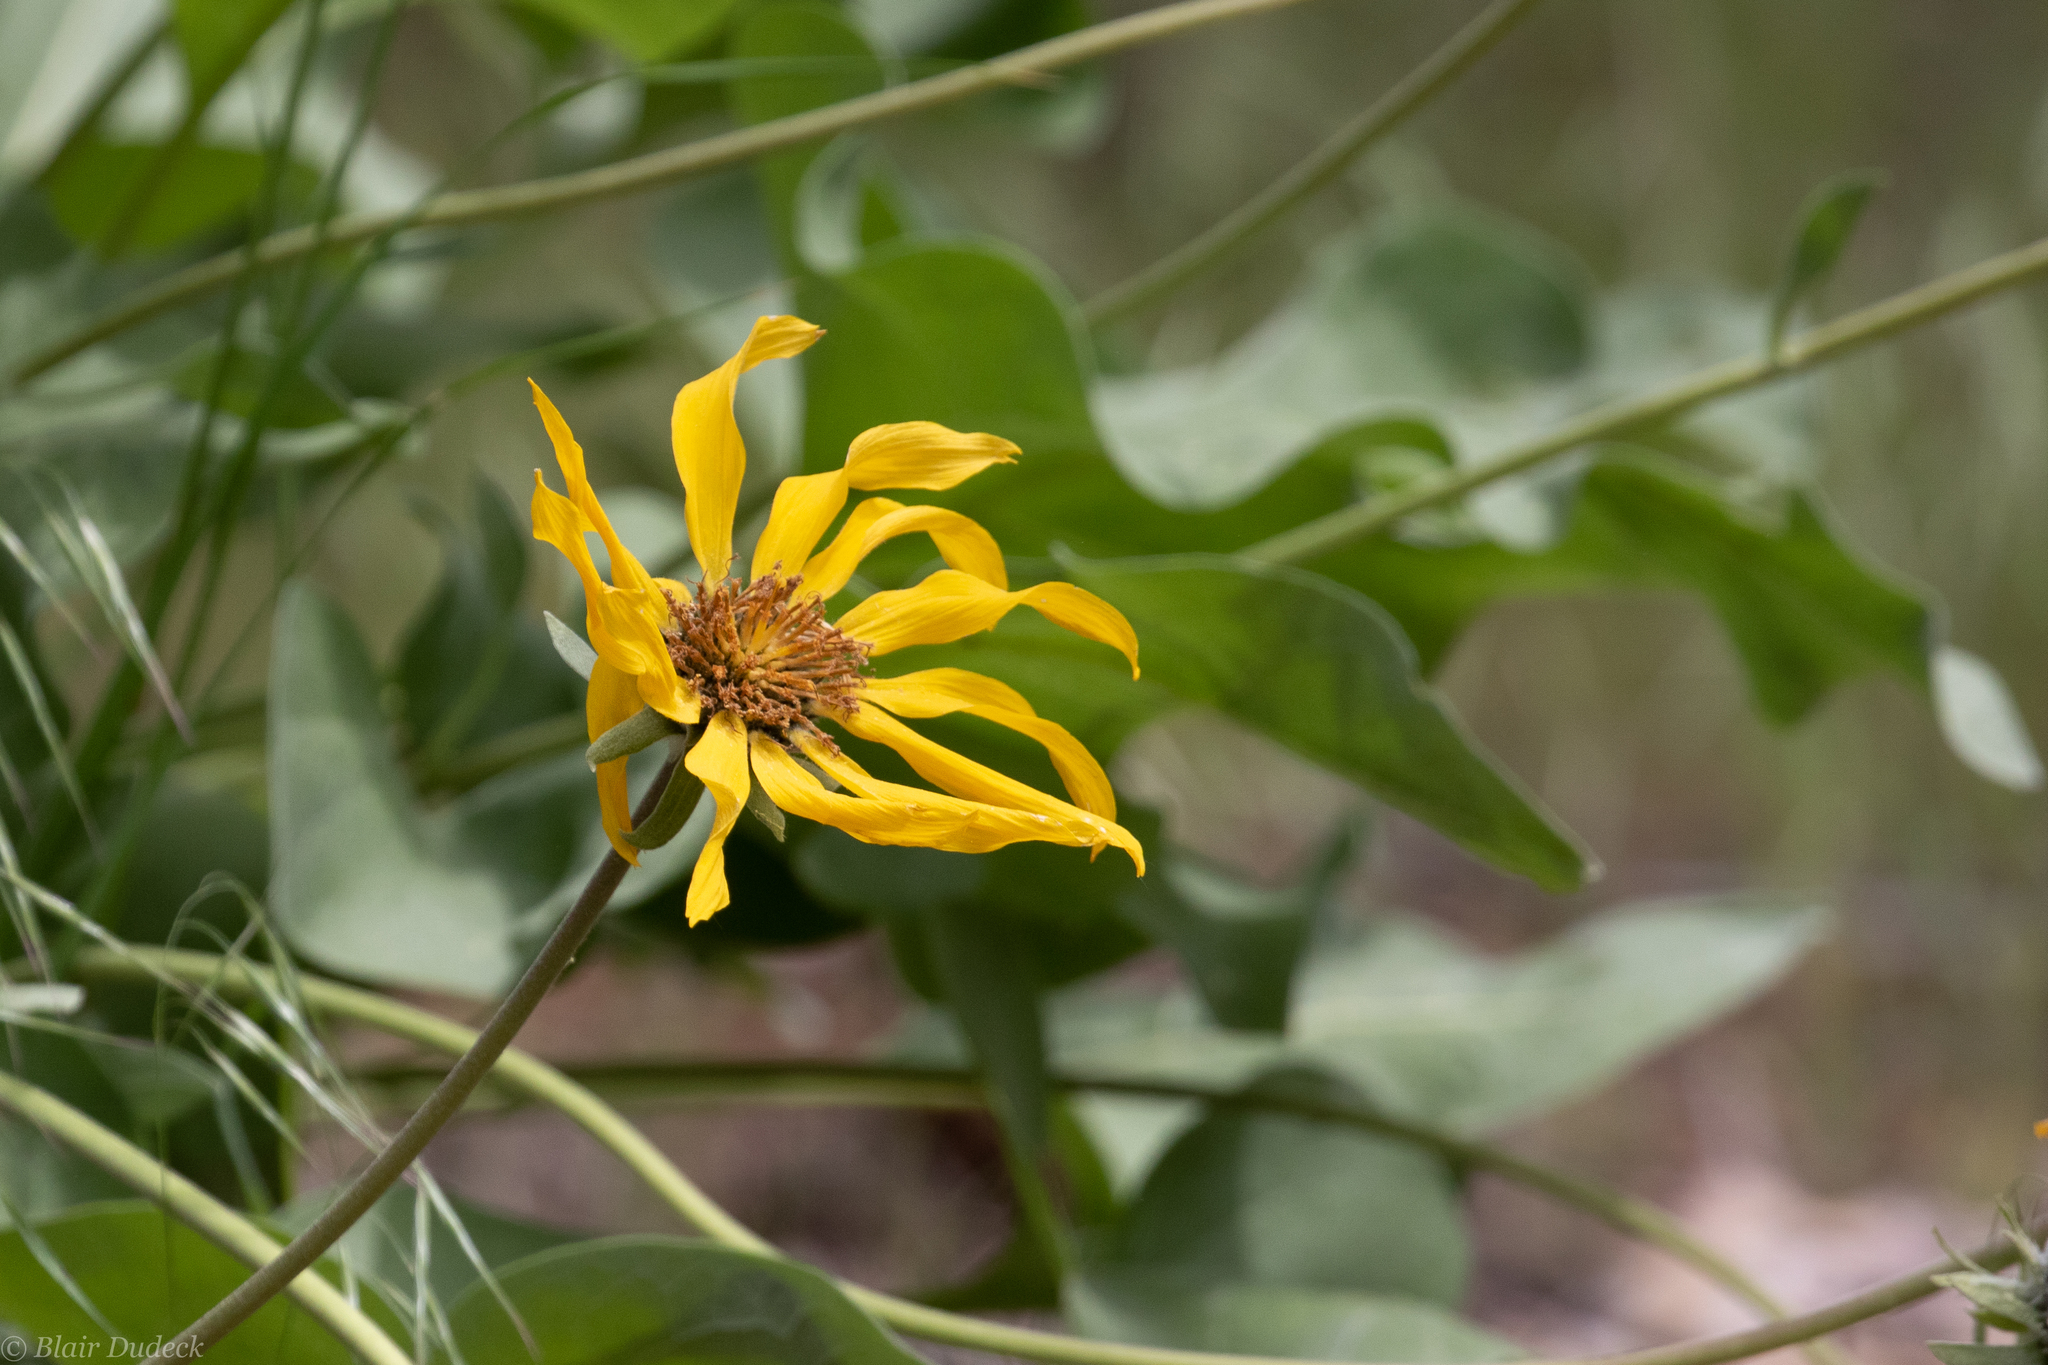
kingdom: Plantae
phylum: Tracheophyta
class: Magnoliopsida
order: Asterales
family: Asteraceae
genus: Wyethia
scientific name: Wyethia sagittata
